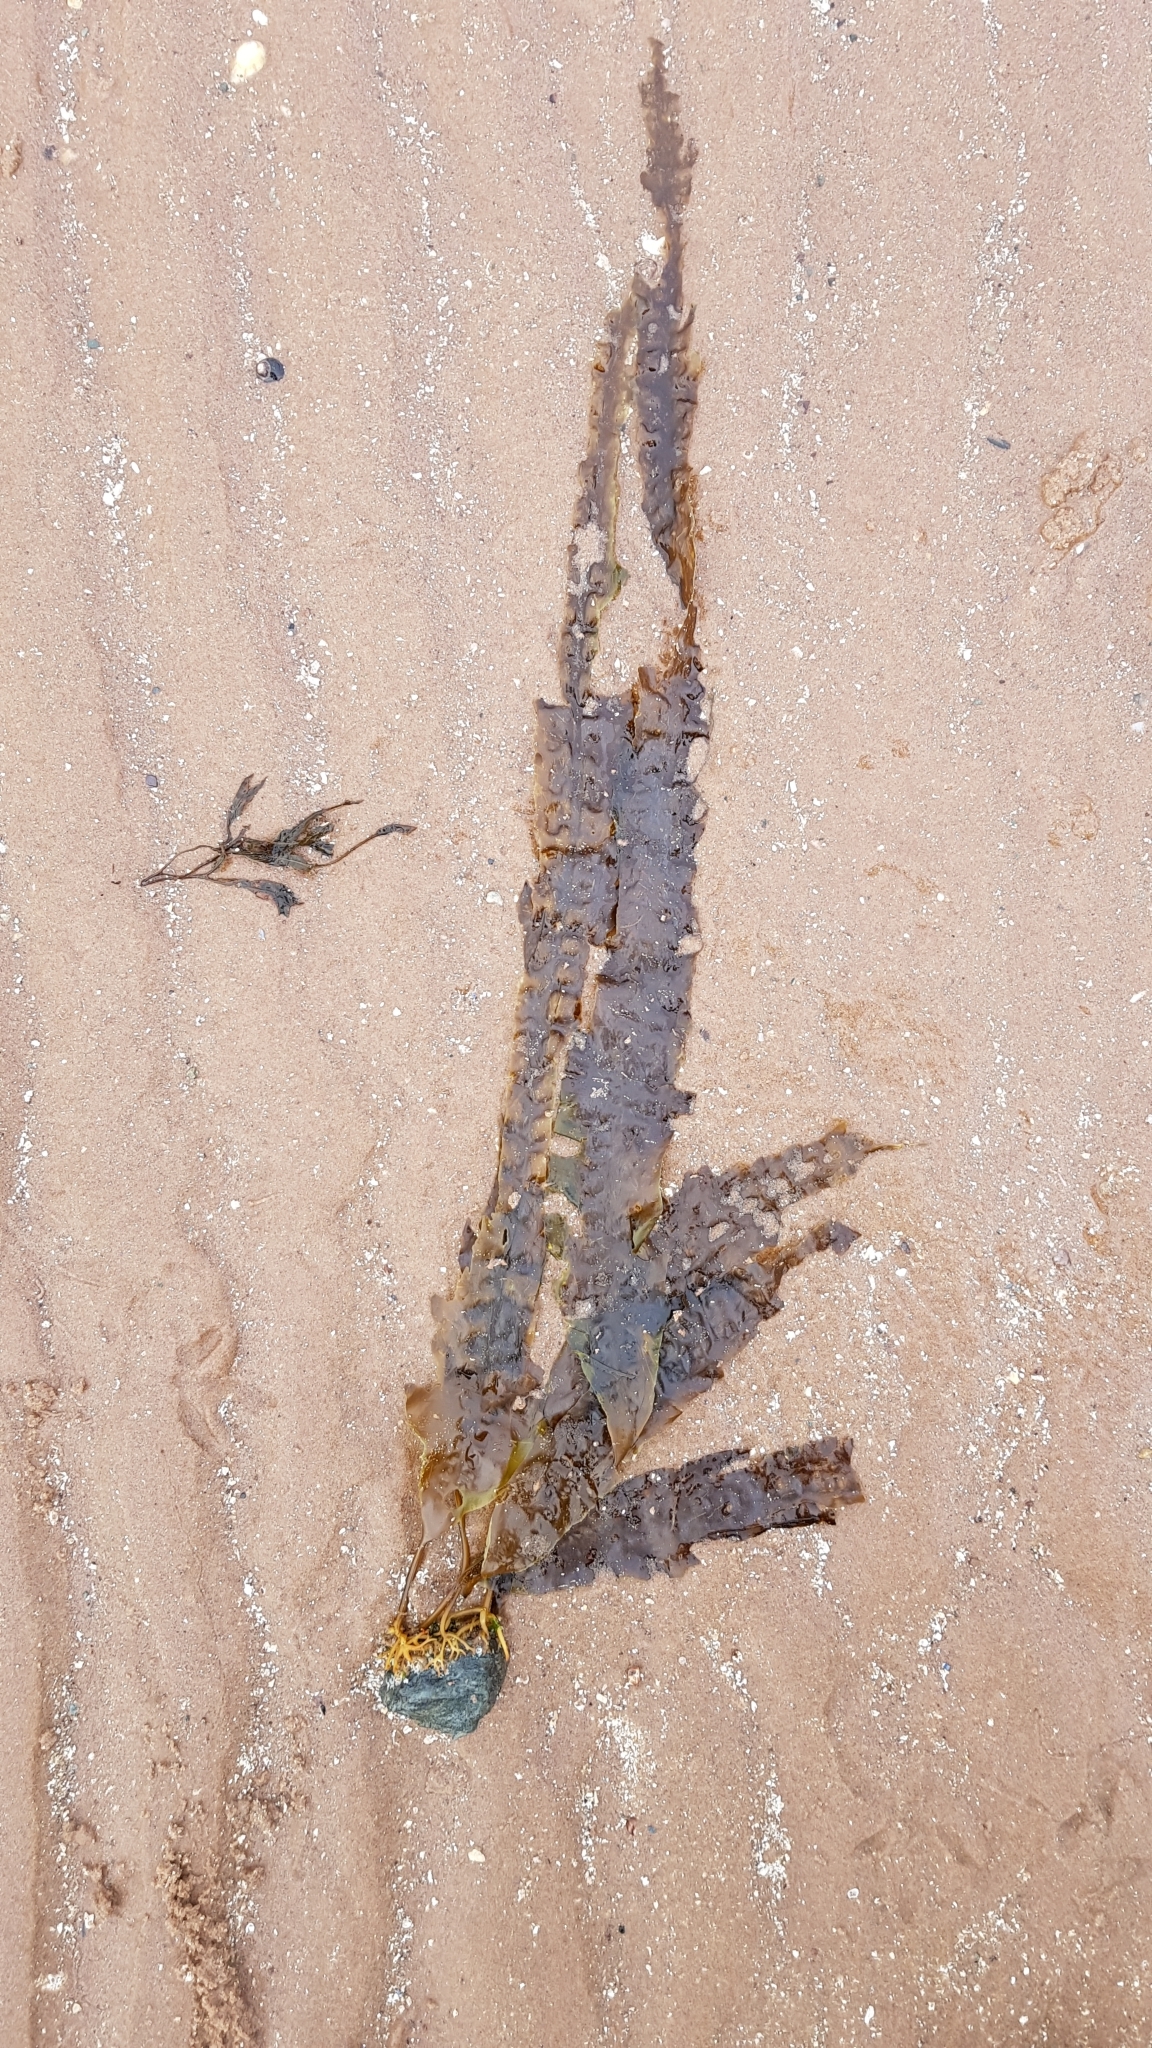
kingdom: Chromista
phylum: Ochrophyta
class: Phaeophyceae
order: Laminariales
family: Laminariaceae
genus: Saccharina
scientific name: Saccharina latissima
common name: Poor man's weather glass
